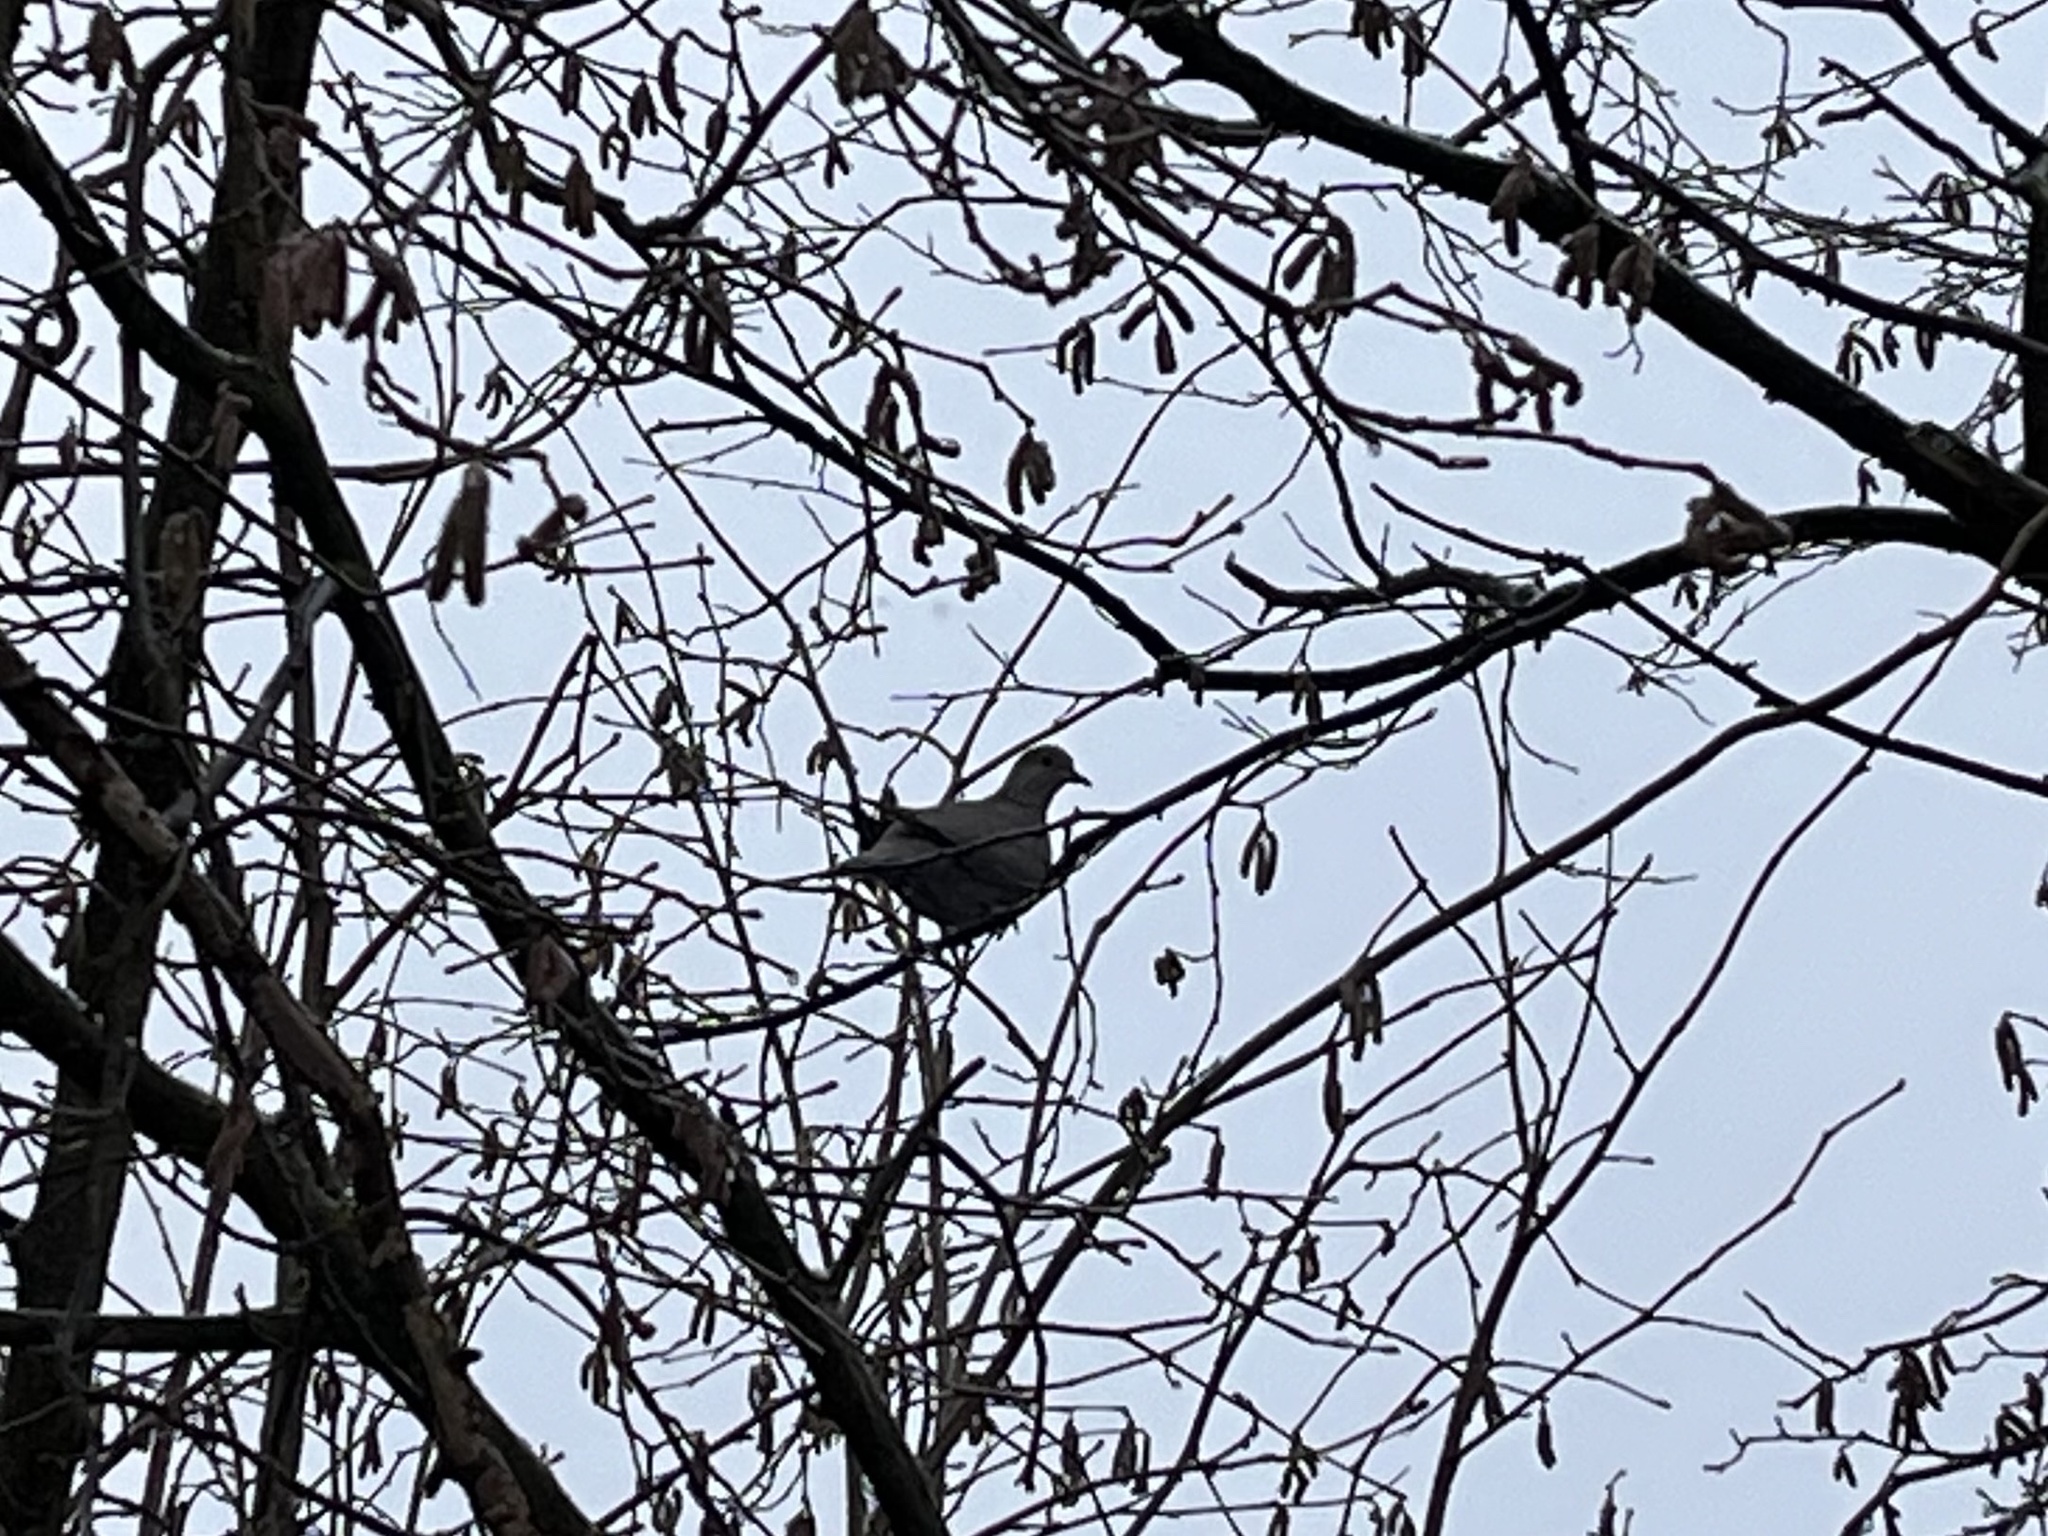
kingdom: Animalia
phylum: Chordata
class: Aves
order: Columbiformes
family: Columbidae
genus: Streptopelia
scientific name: Streptopelia decaocto
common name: Eurasian collared dove
